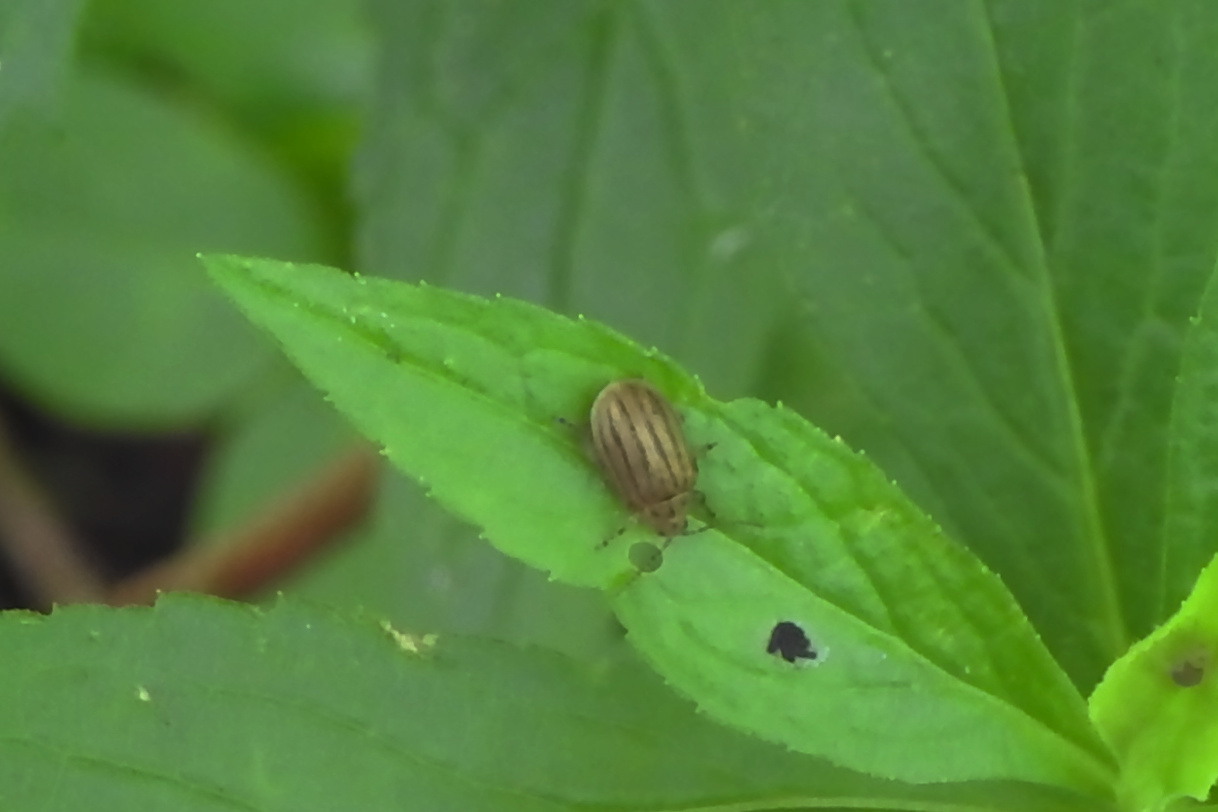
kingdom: Animalia
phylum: Arthropoda
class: Insecta
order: Coleoptera
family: Chrysomelidae
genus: Ophraella
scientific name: Ophraella cribrata
